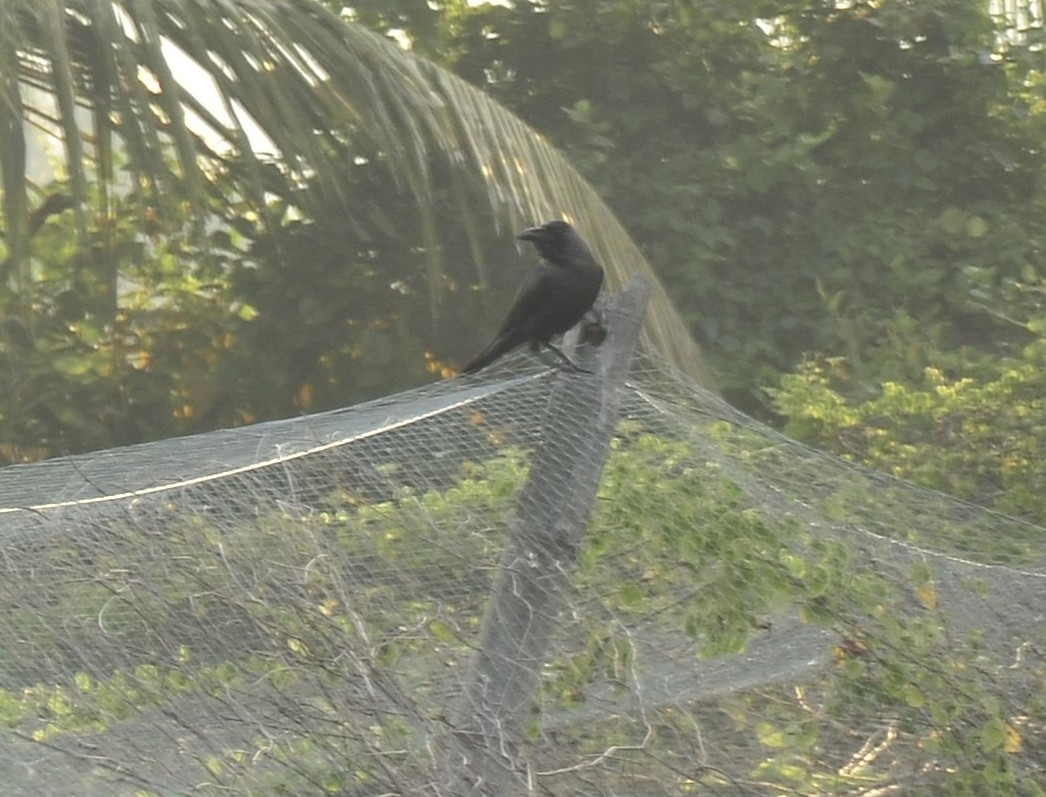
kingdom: Animalia
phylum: Chordata
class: Aves
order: Passeriformes
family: Corvidae
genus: Corvus
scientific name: Corvus splendens
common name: House crow
